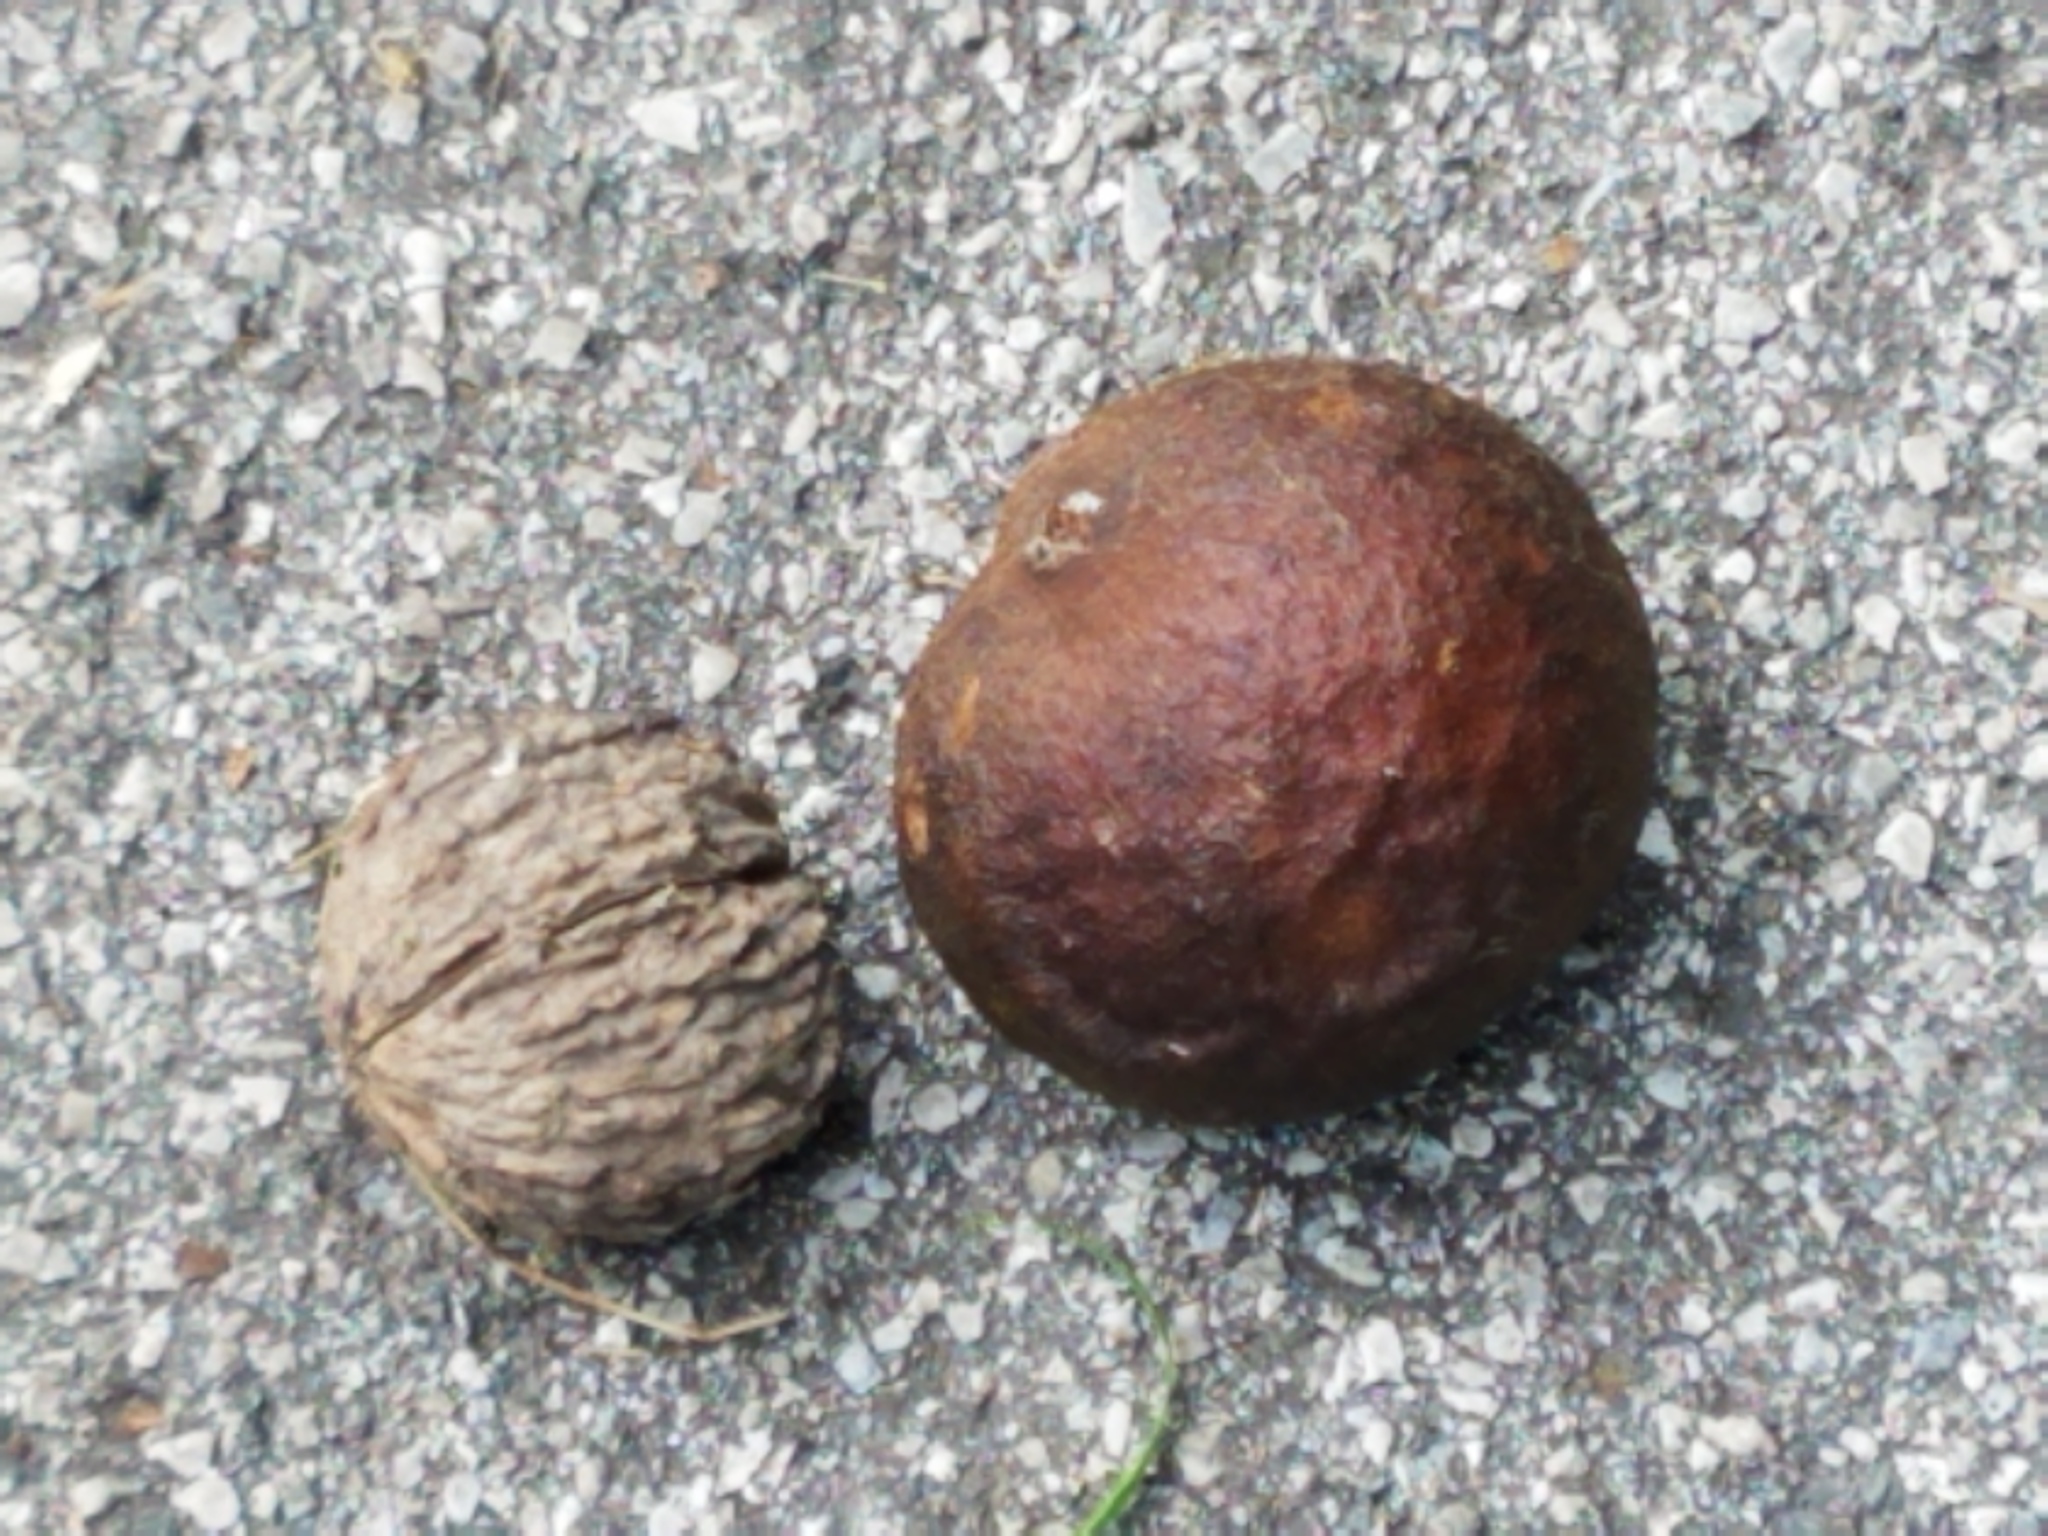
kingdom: Plantae
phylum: Tracheophyta
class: Magnoliopsida
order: Fagales
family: Juglandaceae
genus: Juglans
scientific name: Juglans nigra
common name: Black walnut
